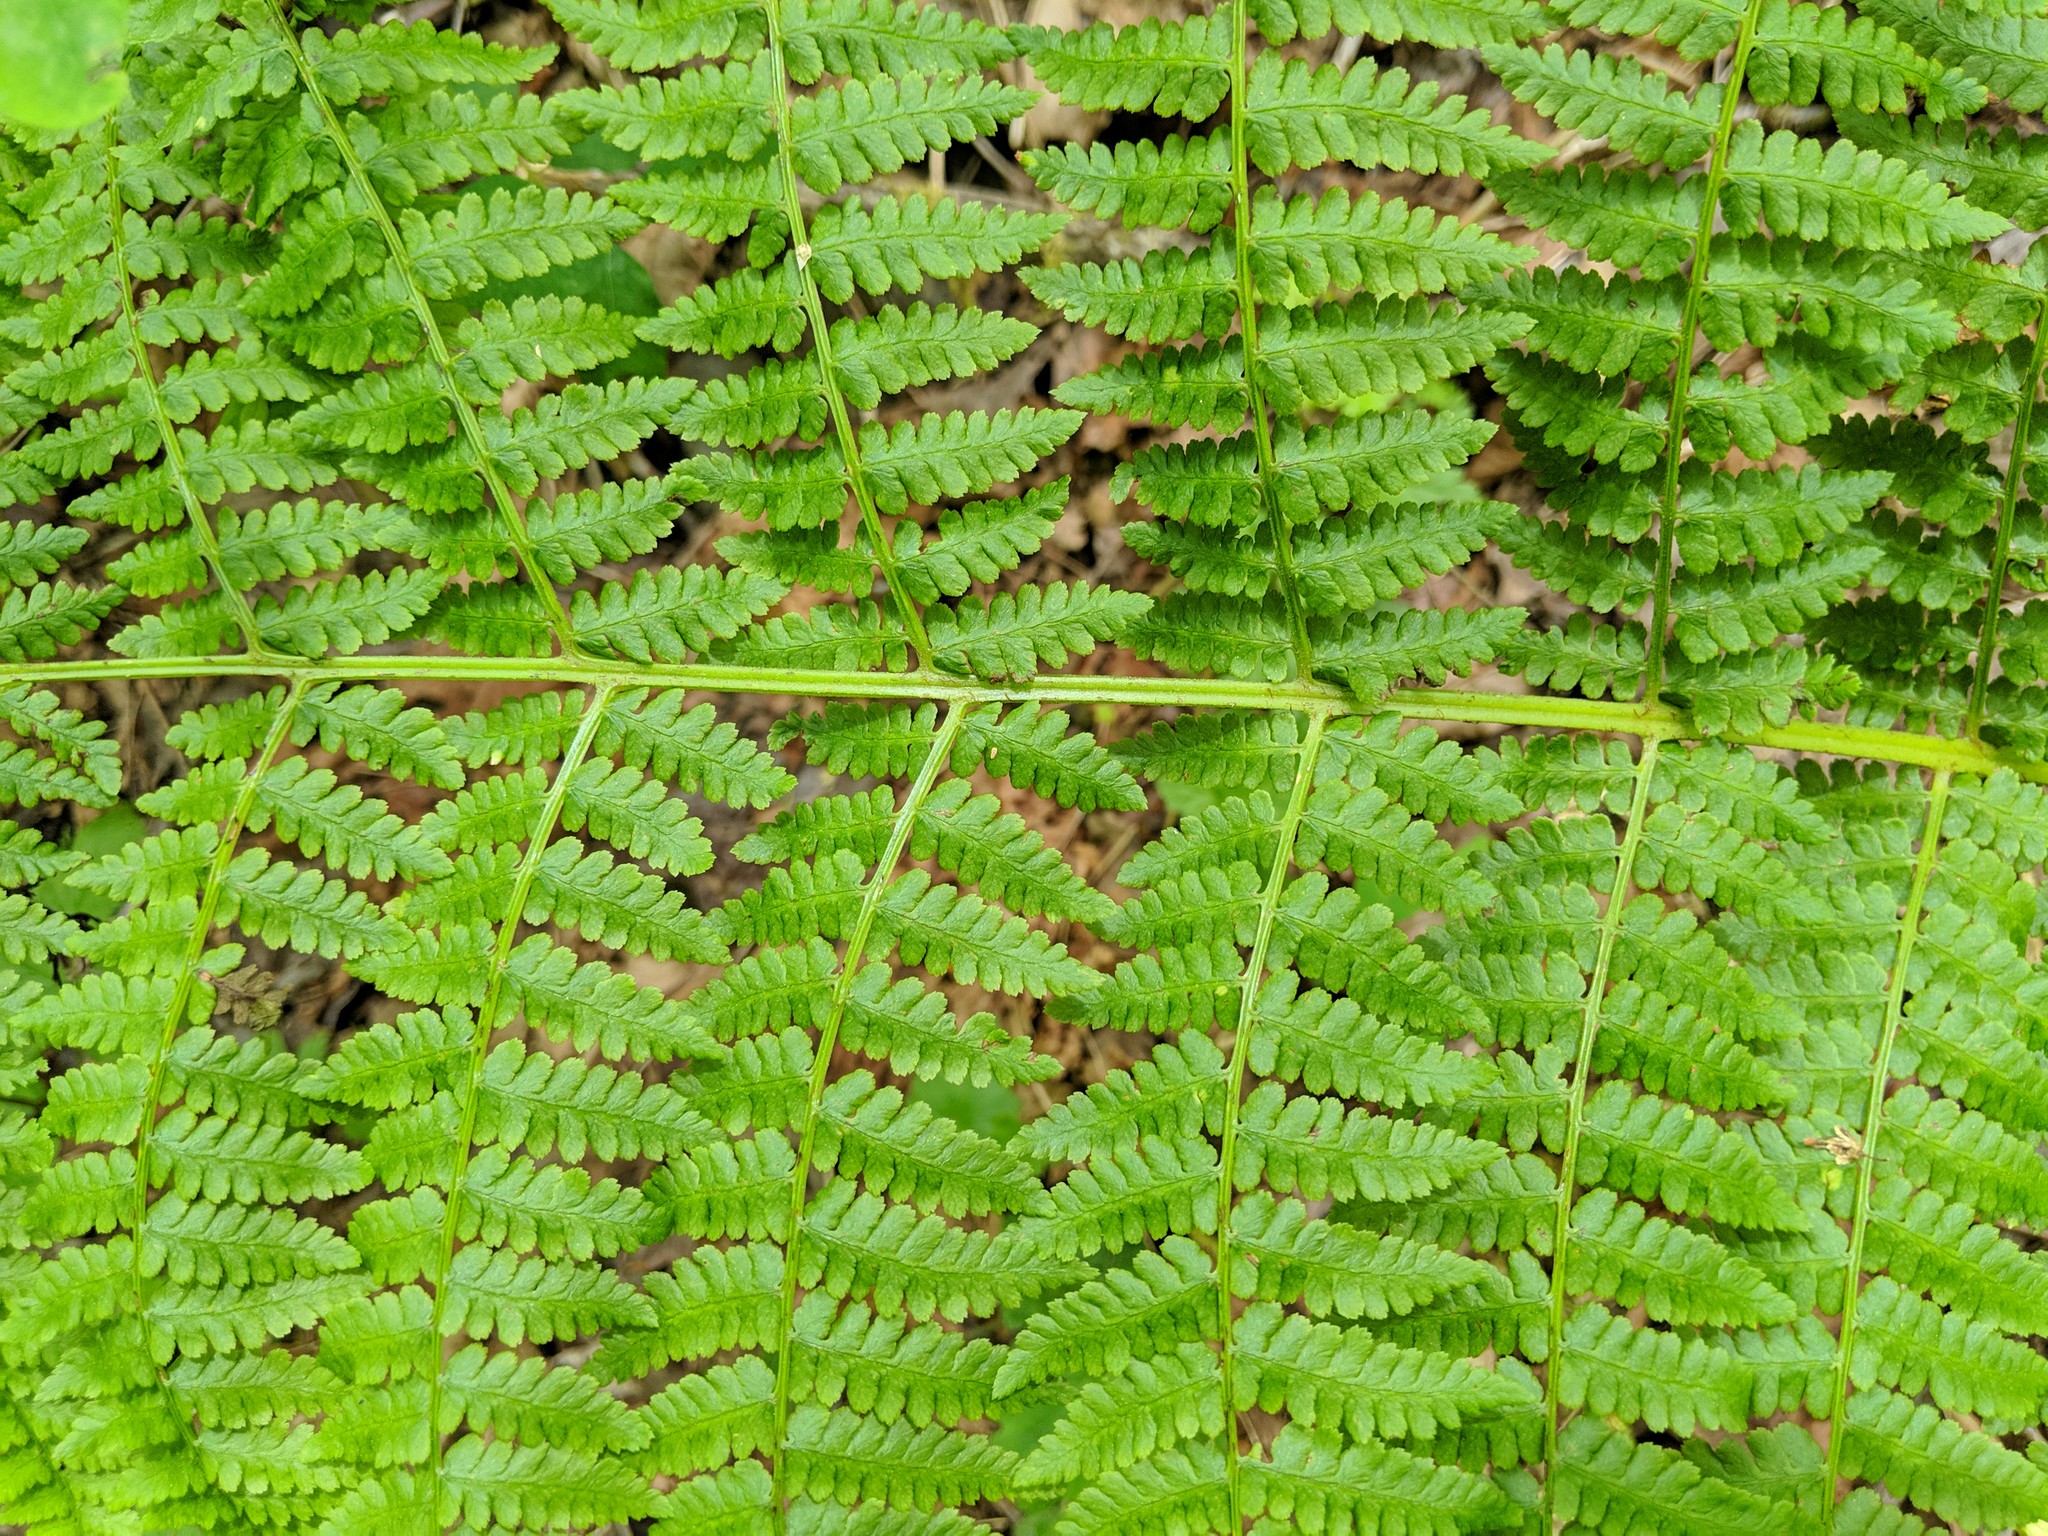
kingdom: Plantae
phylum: Tracheophyta
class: Polypodiopsida
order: Polypodiales
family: Athyriaceae
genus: Athyrium
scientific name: Athyrium cyclosorum
